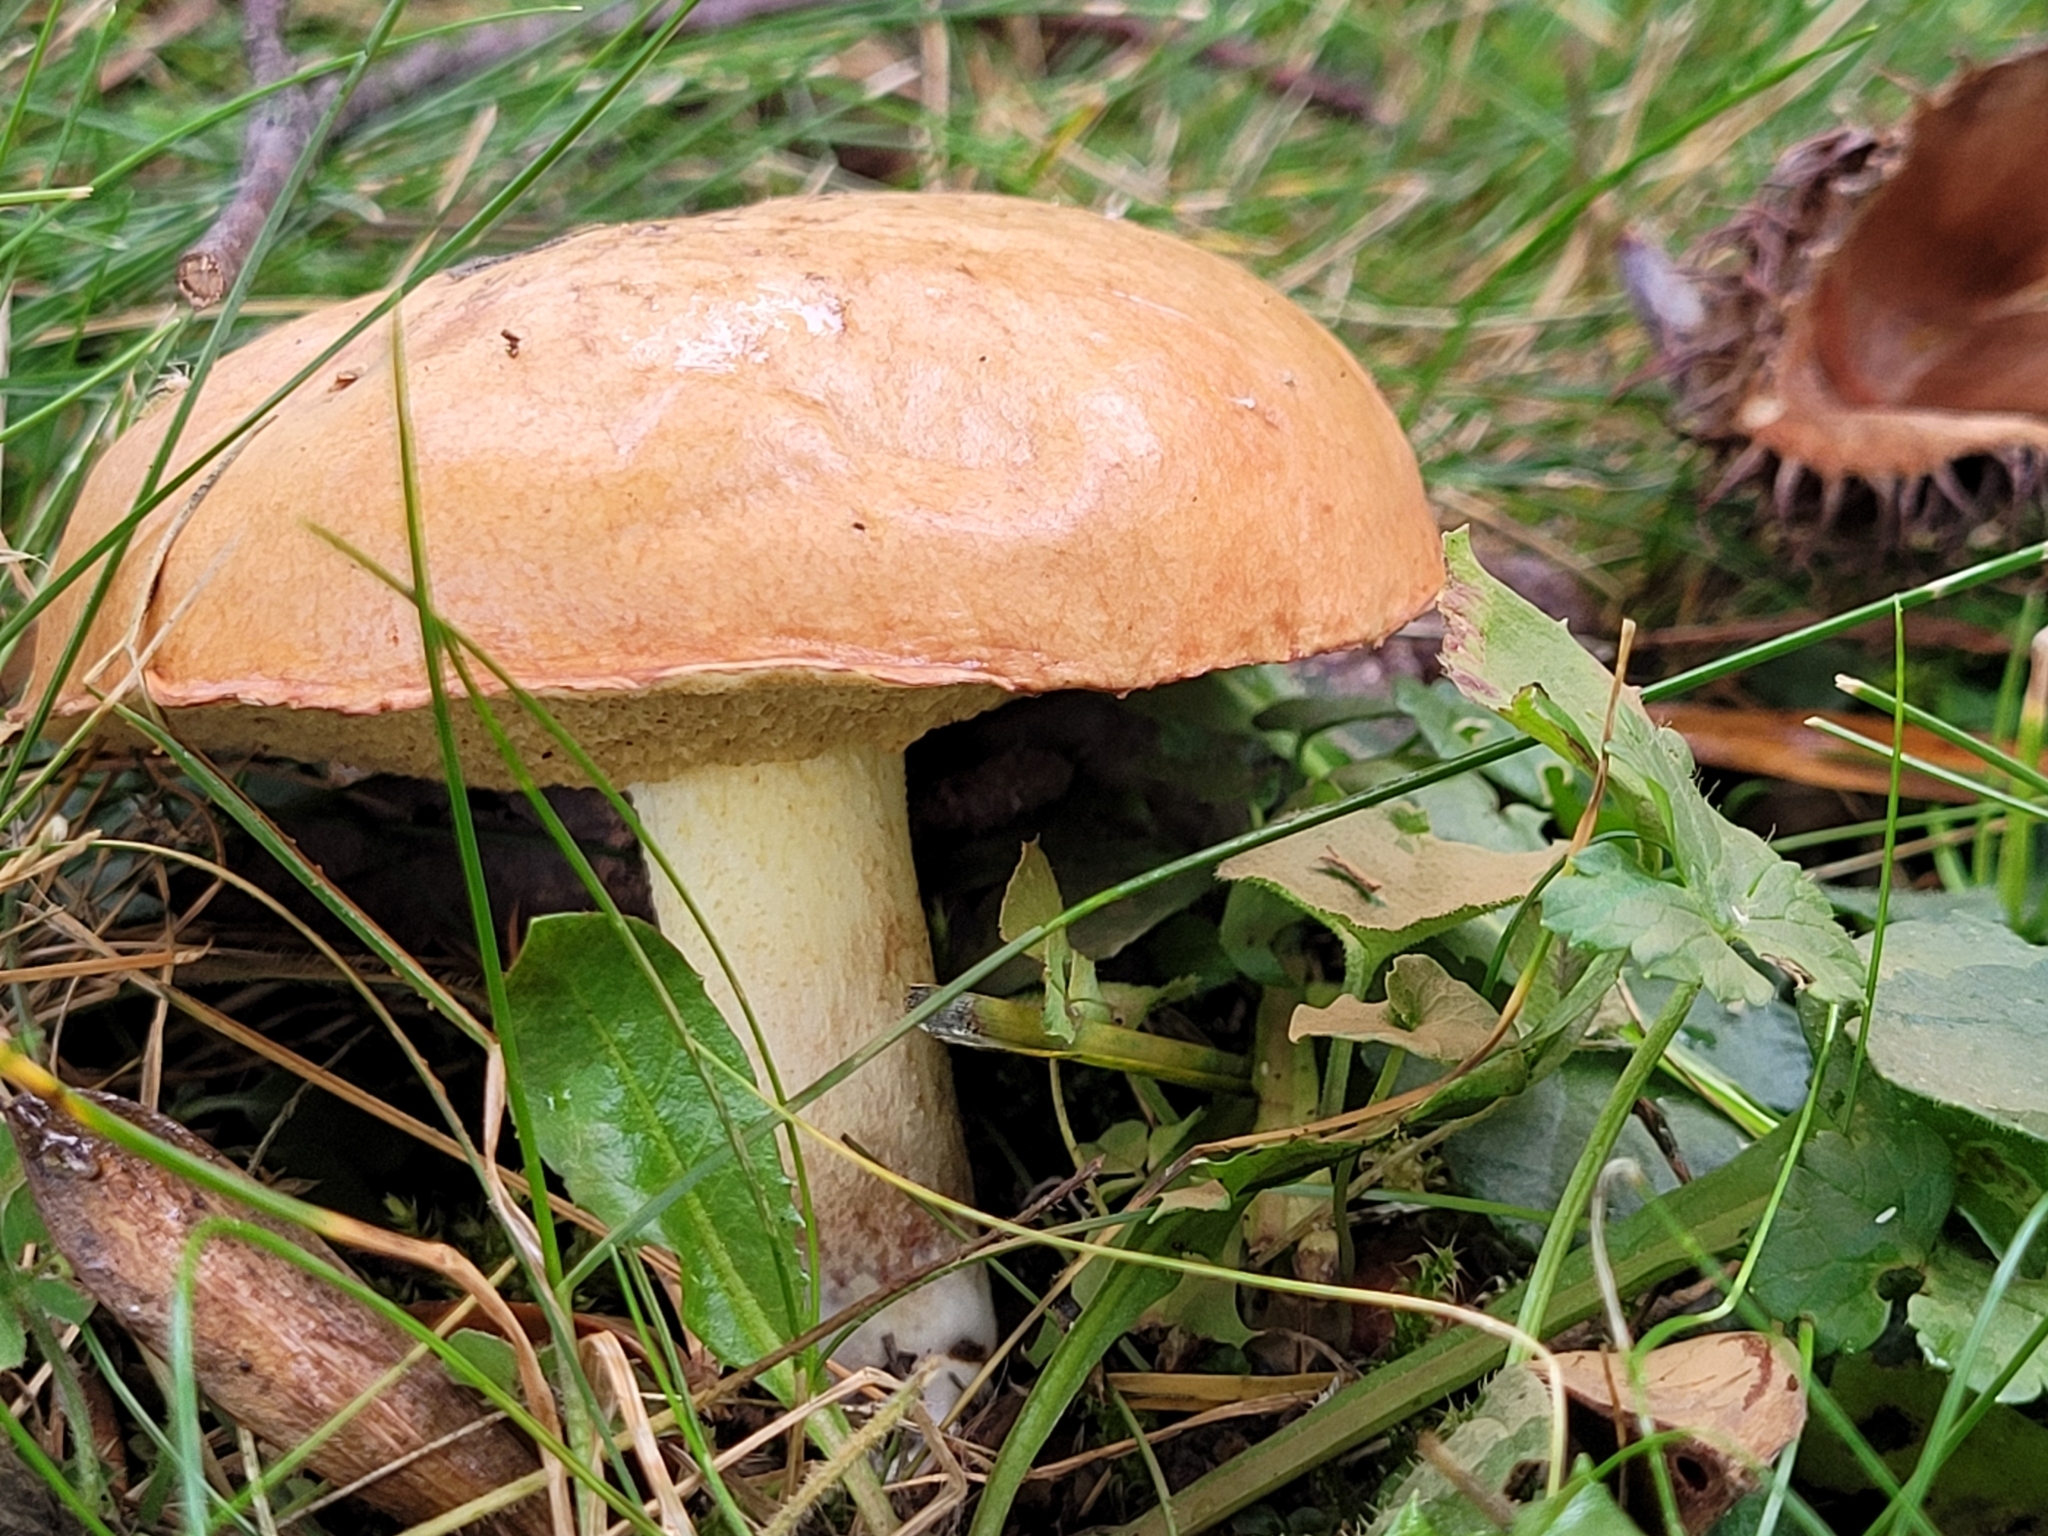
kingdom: Fungi
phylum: Basidiomycota
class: Agaricomycetes
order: Boletales
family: Suillaceae
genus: Suillus
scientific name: Suillus granulatus
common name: Weeping bolete
